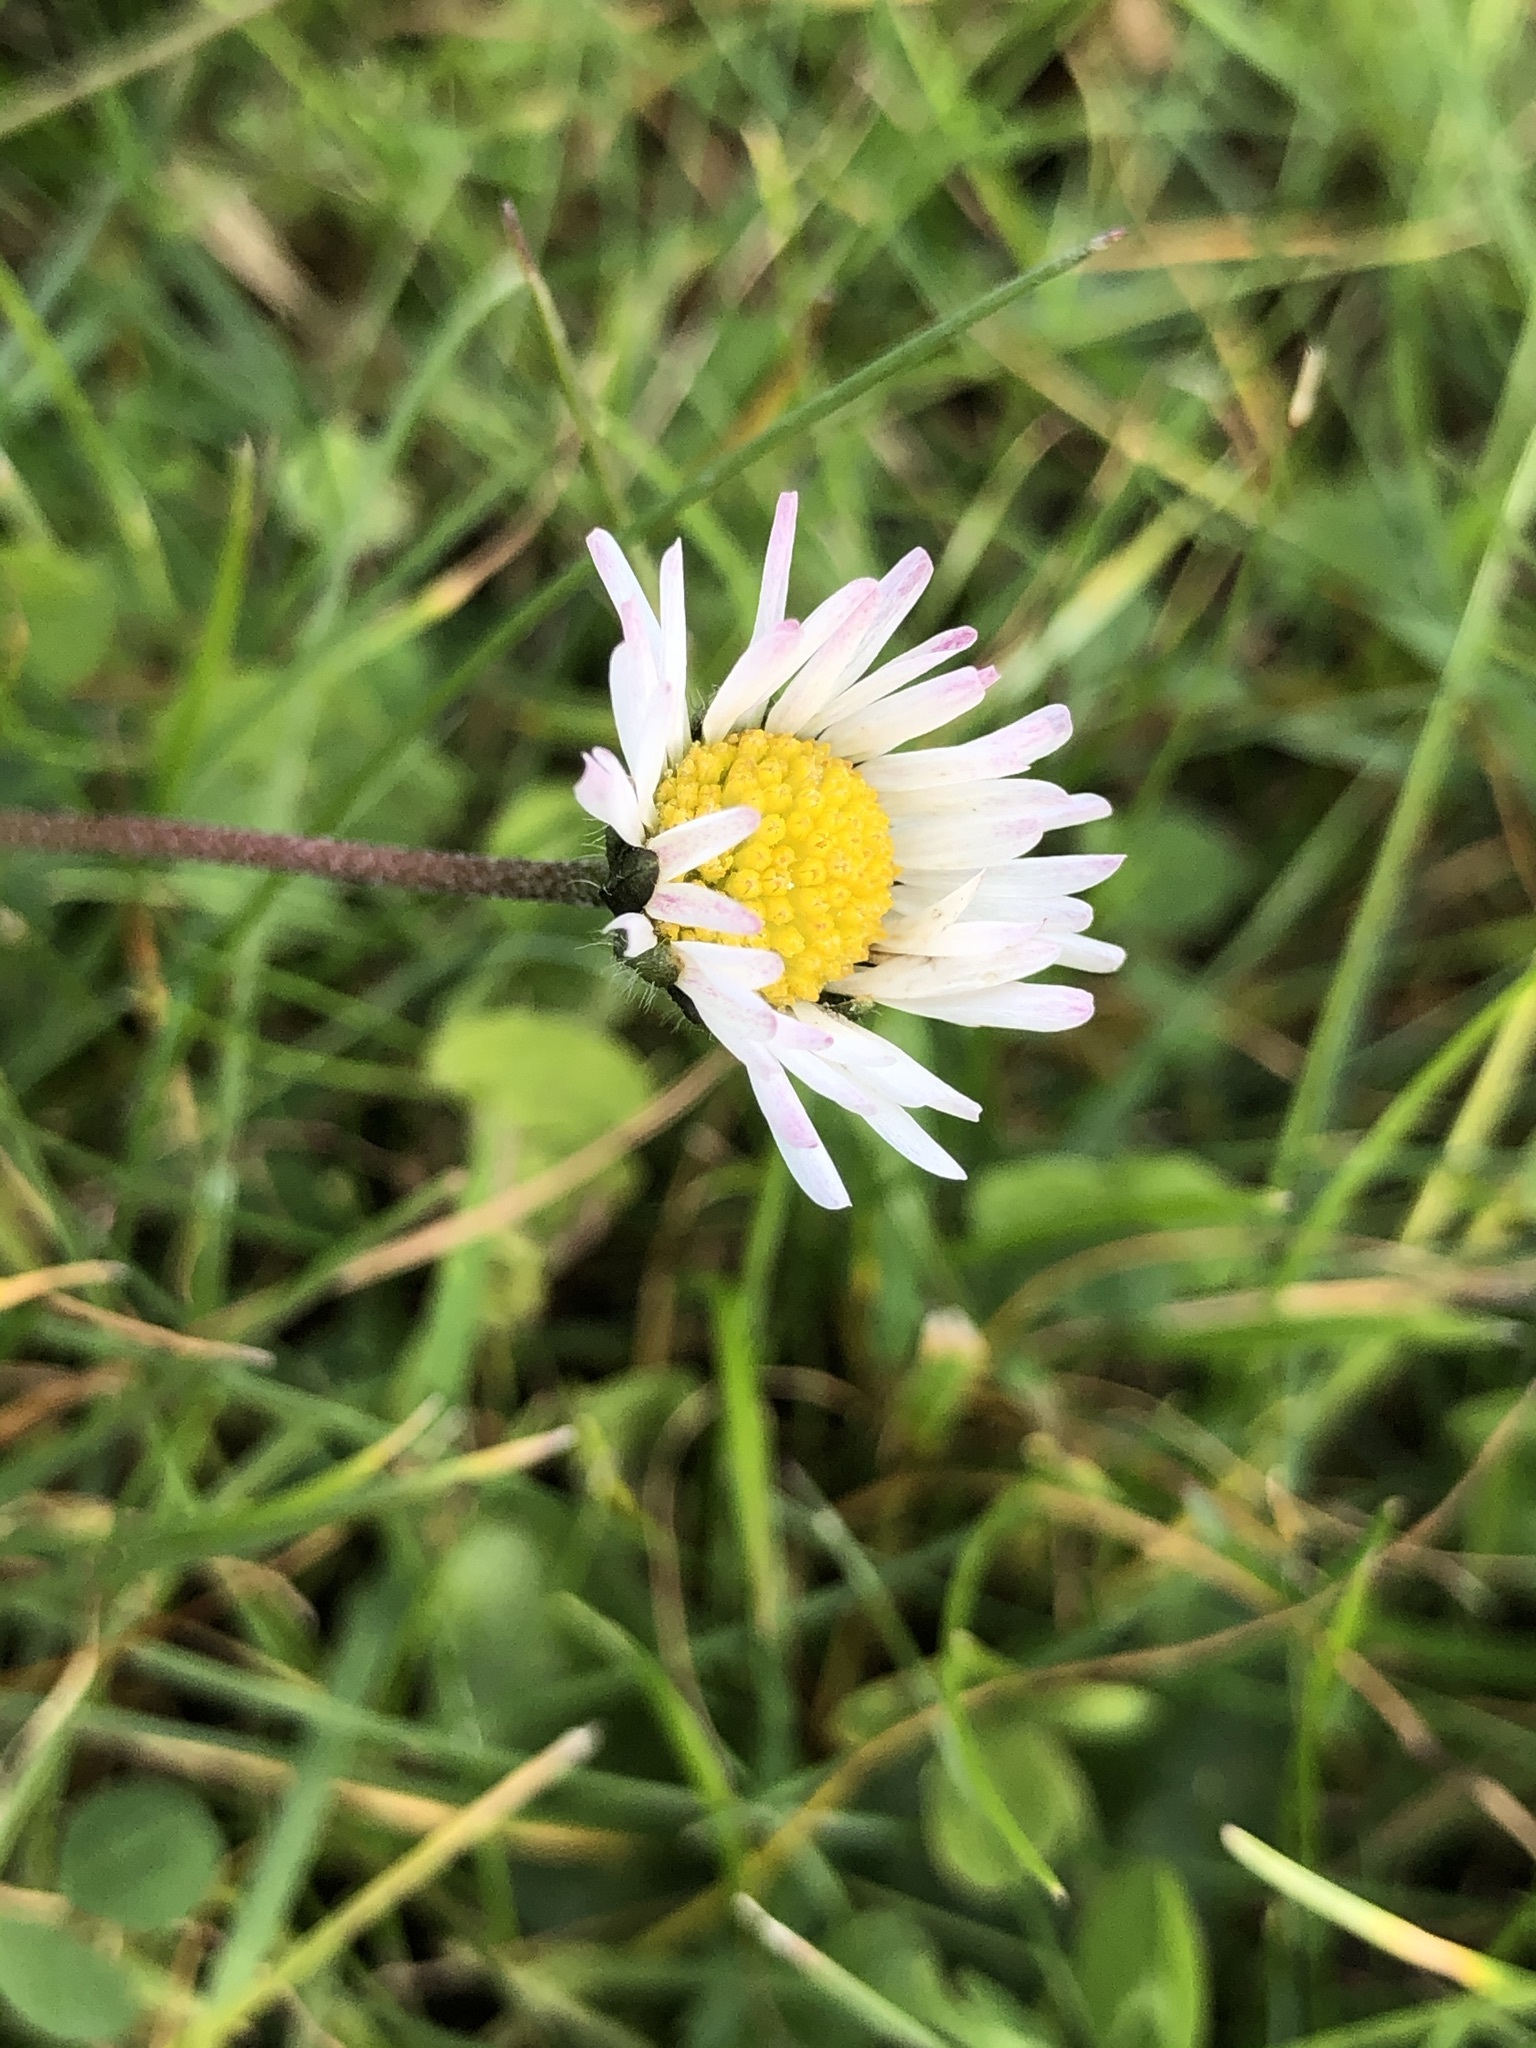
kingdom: Plantae
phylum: Tracheophyta
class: Magnoliopsida
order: Asterales
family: Asteraceae
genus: Bellis
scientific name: Bellis perennis
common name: Lawndaisy
